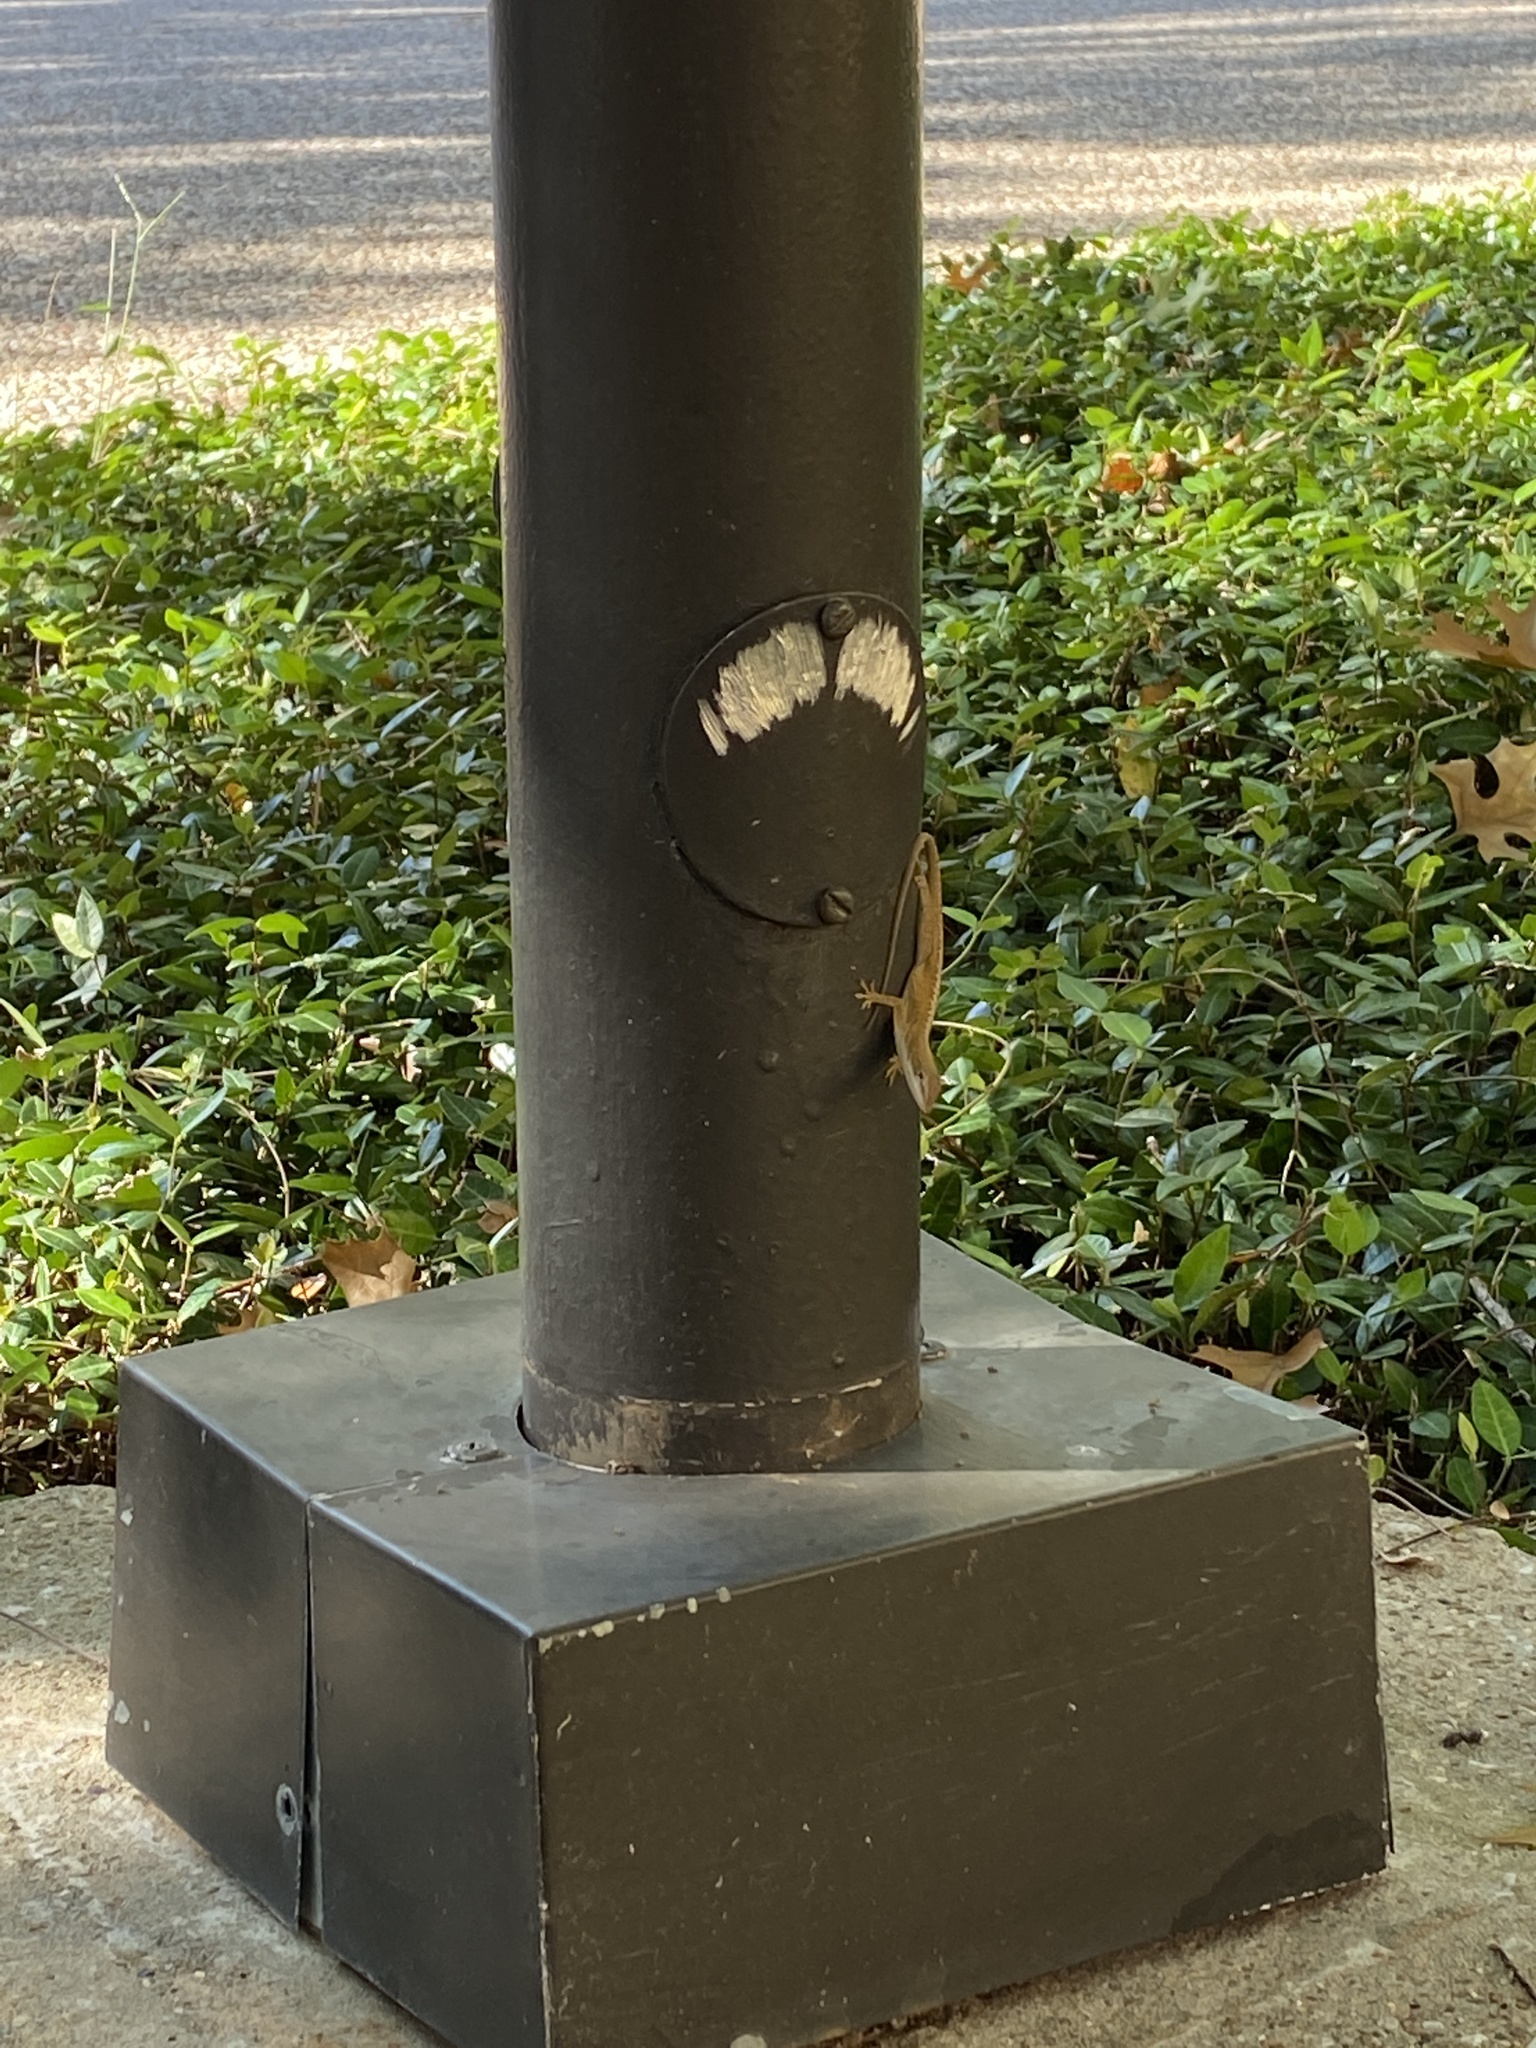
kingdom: Animalia
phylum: Chordata
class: Squamata
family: Dactyloidae
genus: Anolis
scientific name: Anolis carolinensis
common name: Green anole
